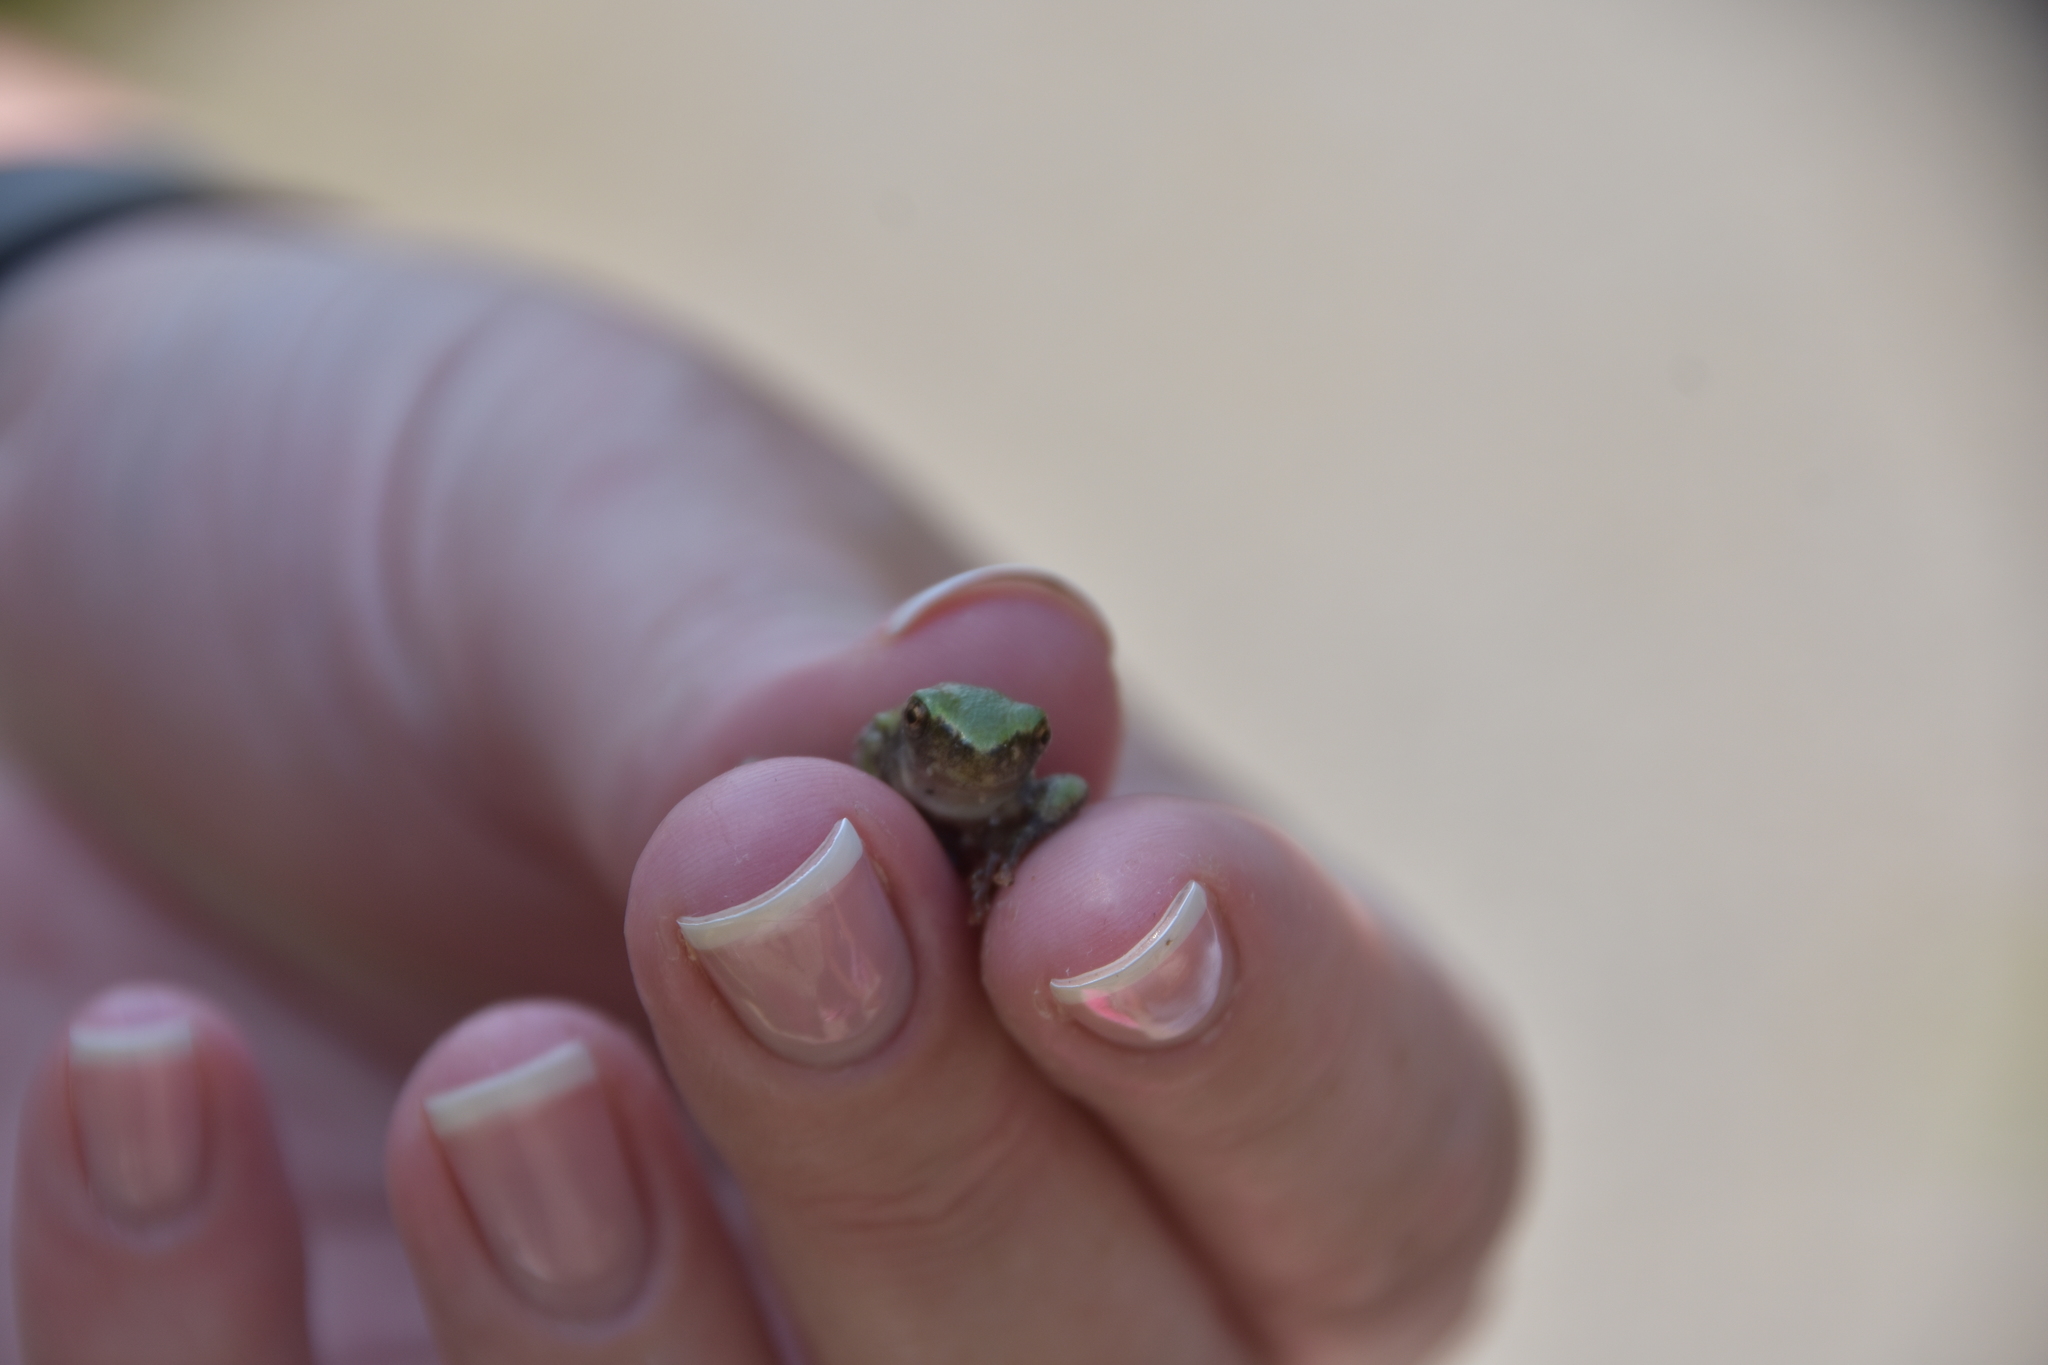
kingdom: Animalia
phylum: Chordata
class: Amphibia
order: Anura
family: Hylidae
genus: Dryophytes
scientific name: Dryophytes versicolor
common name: Gray treefrog
